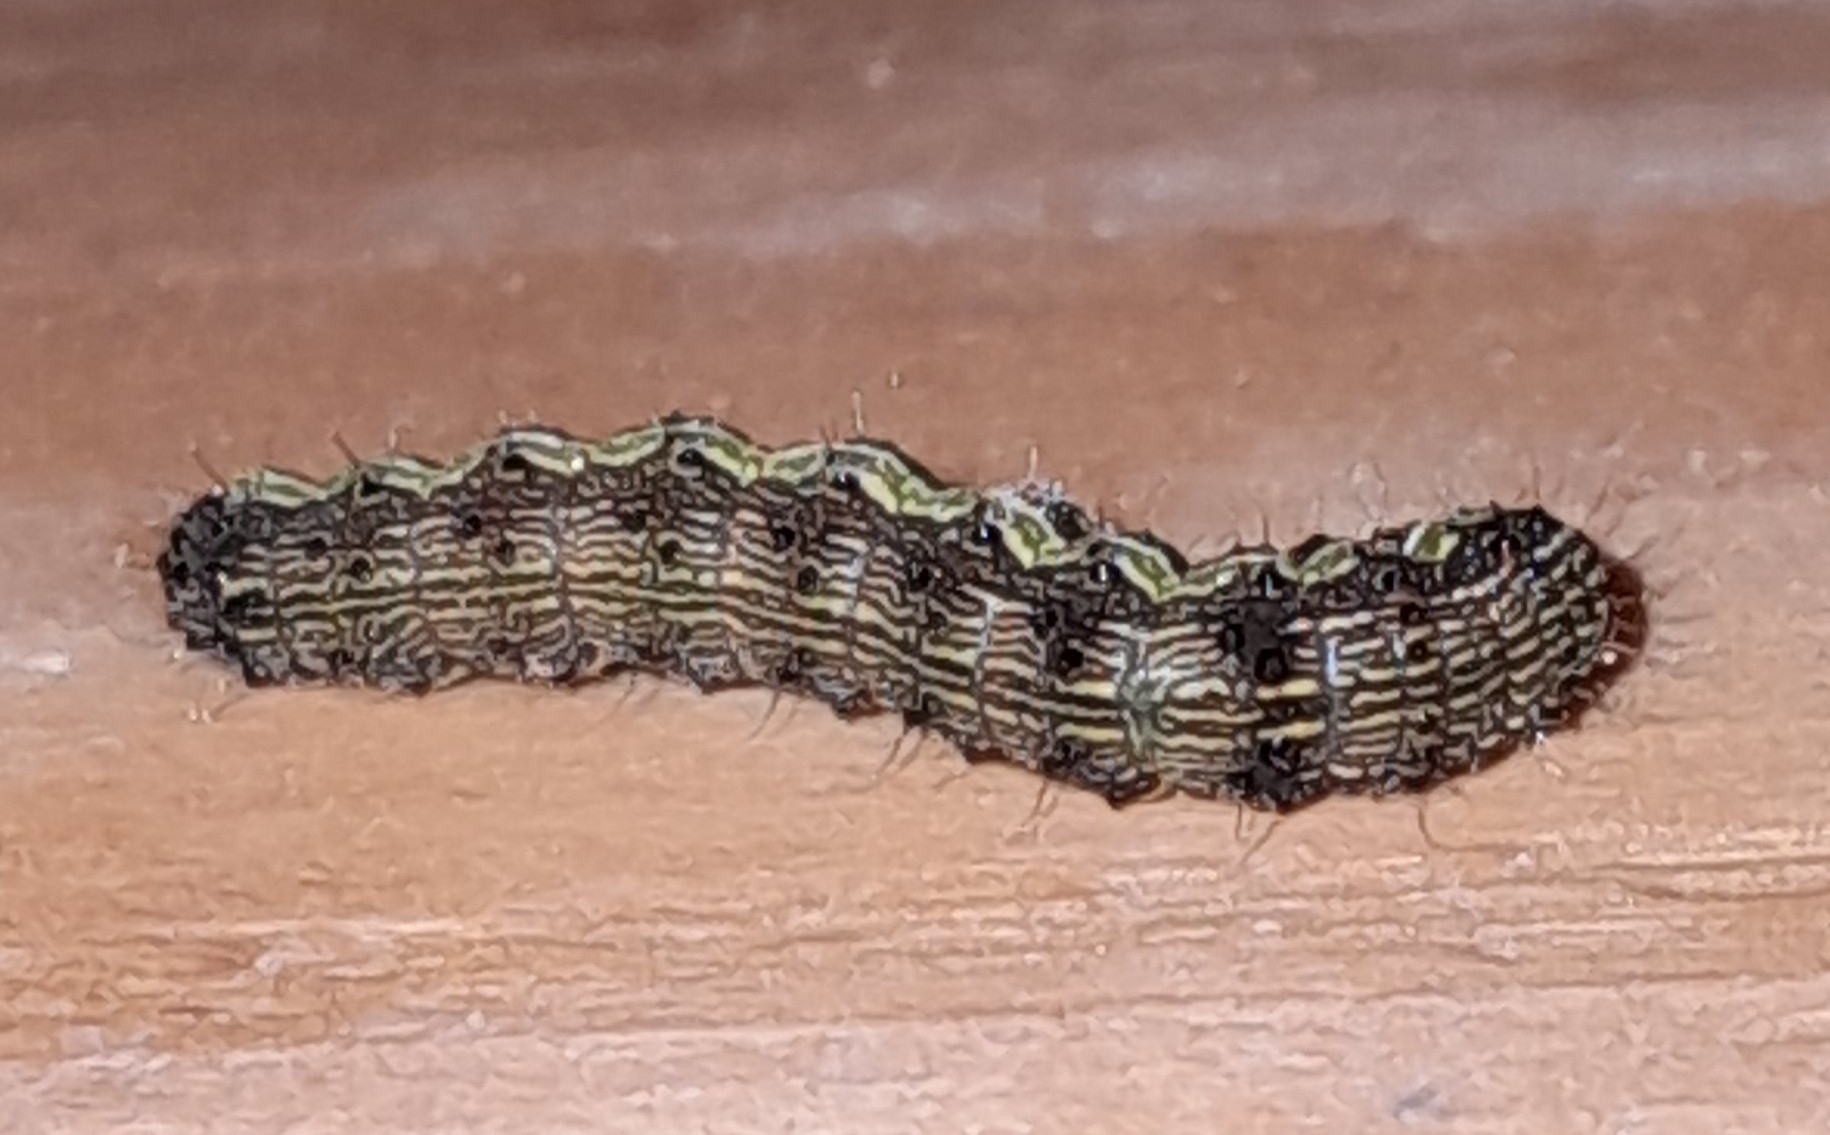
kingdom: Animalia
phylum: Arthropoda
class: Insecta
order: Lepidoptera
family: Noctuidae
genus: Helicoverpa
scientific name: Helicoverpa armigera
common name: Cotton bollworm
